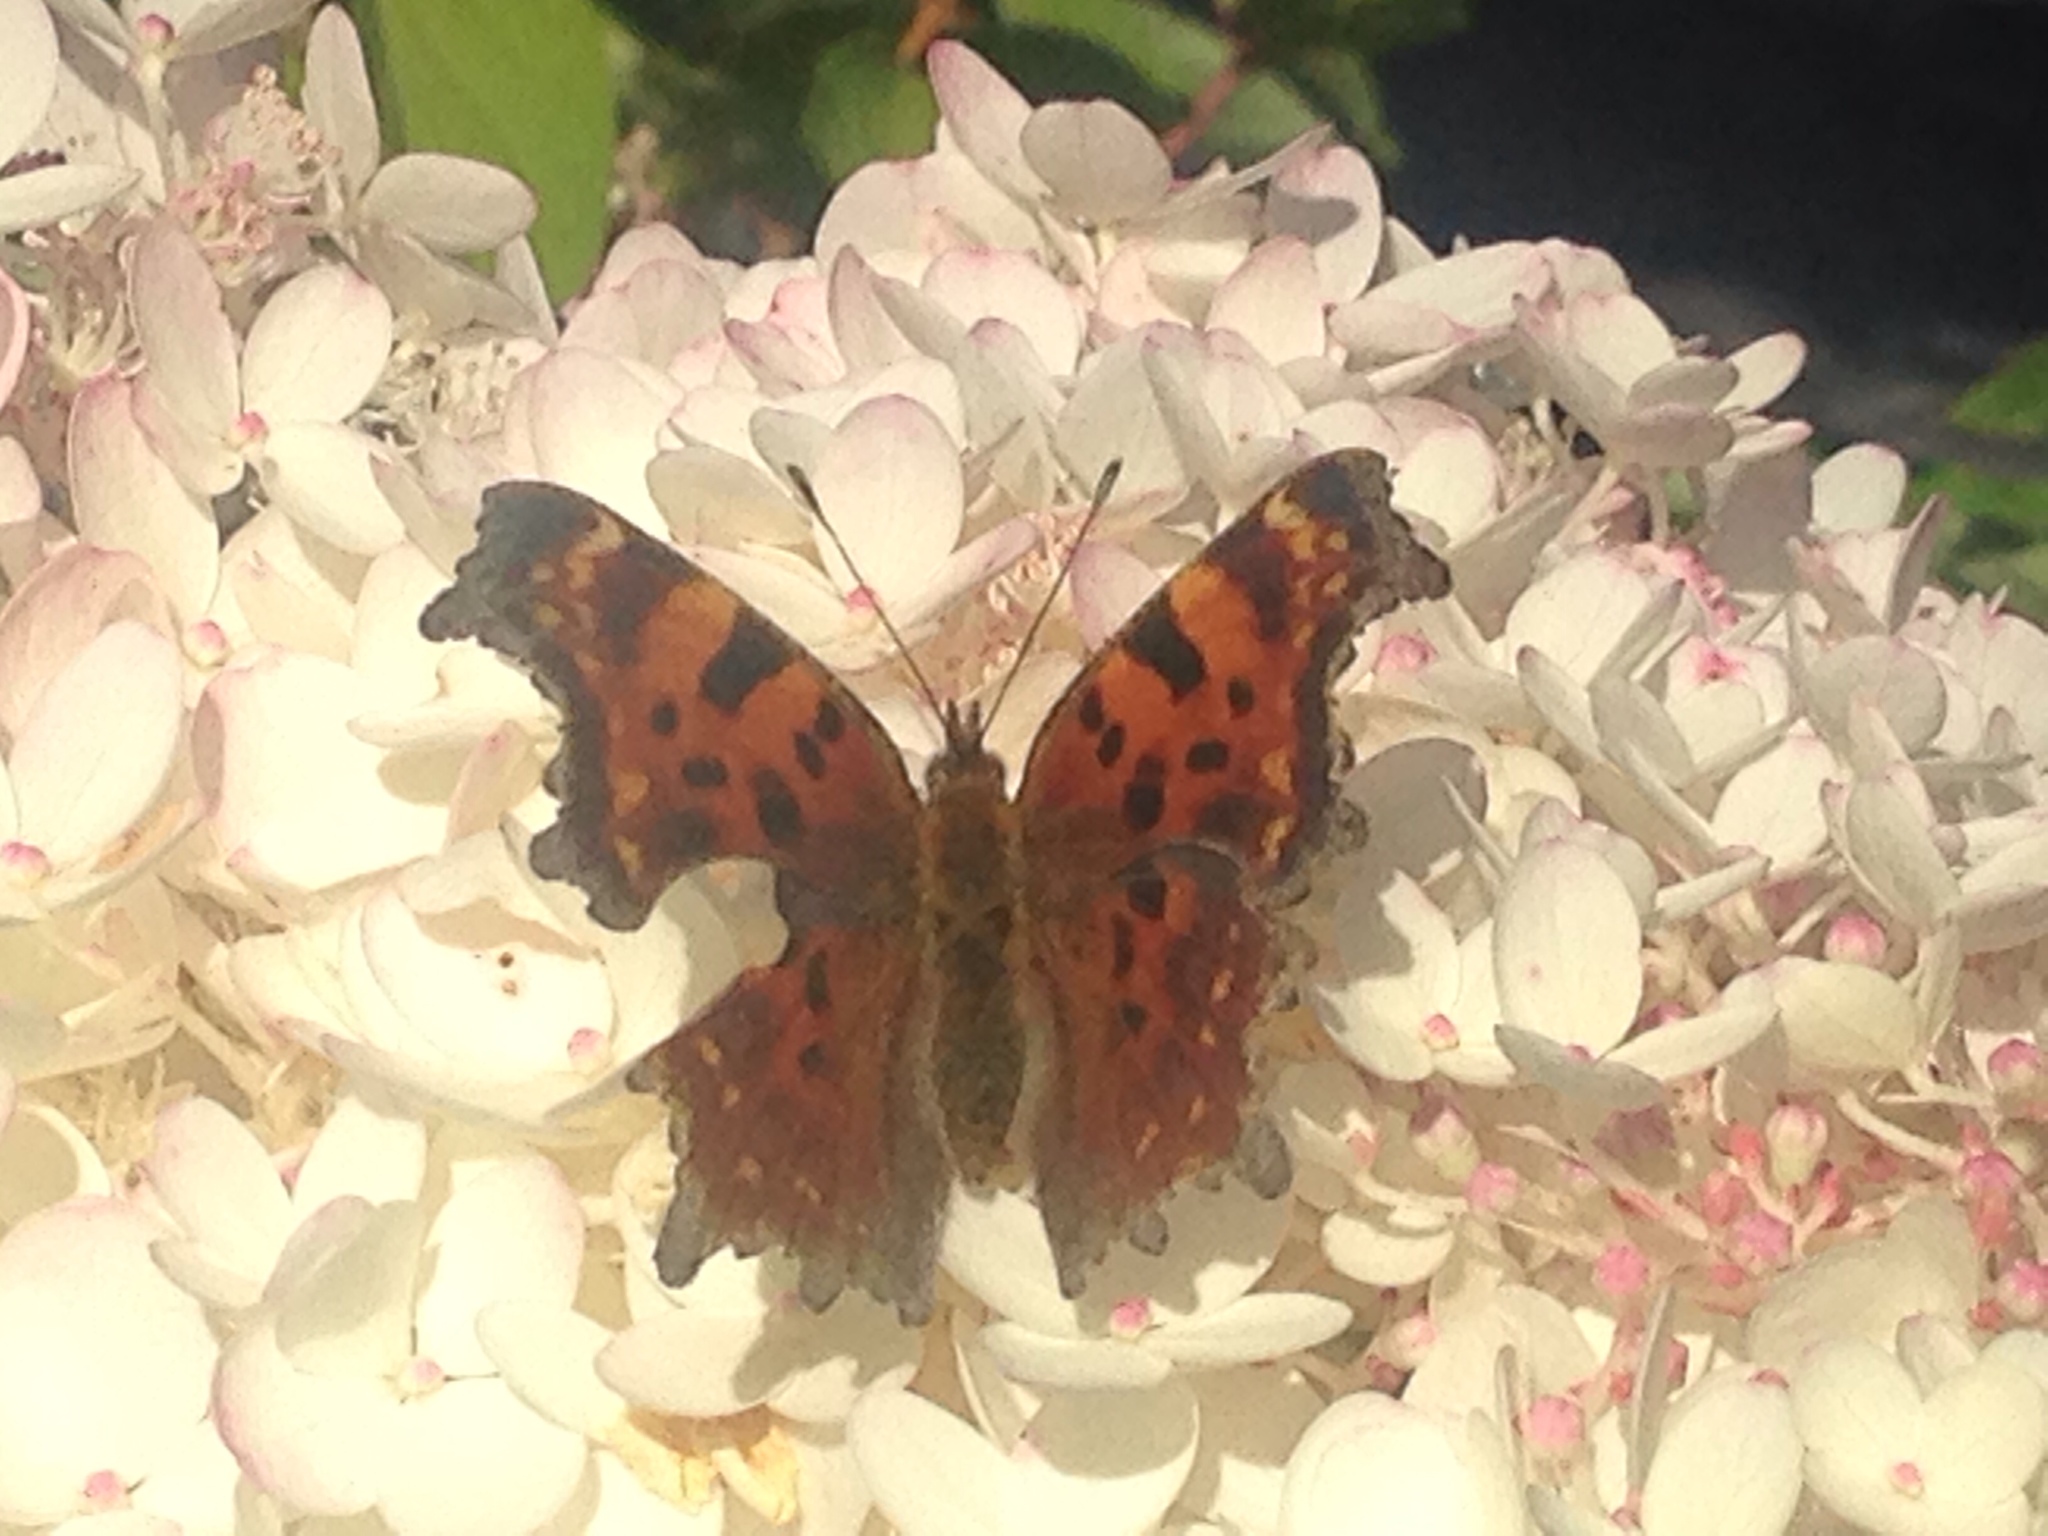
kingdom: Animalia
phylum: Arthropoda
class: Insecta
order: Lepidoptera
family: Nymphalidae
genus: Polygonia
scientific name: Polygonia c-album
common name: Comma
